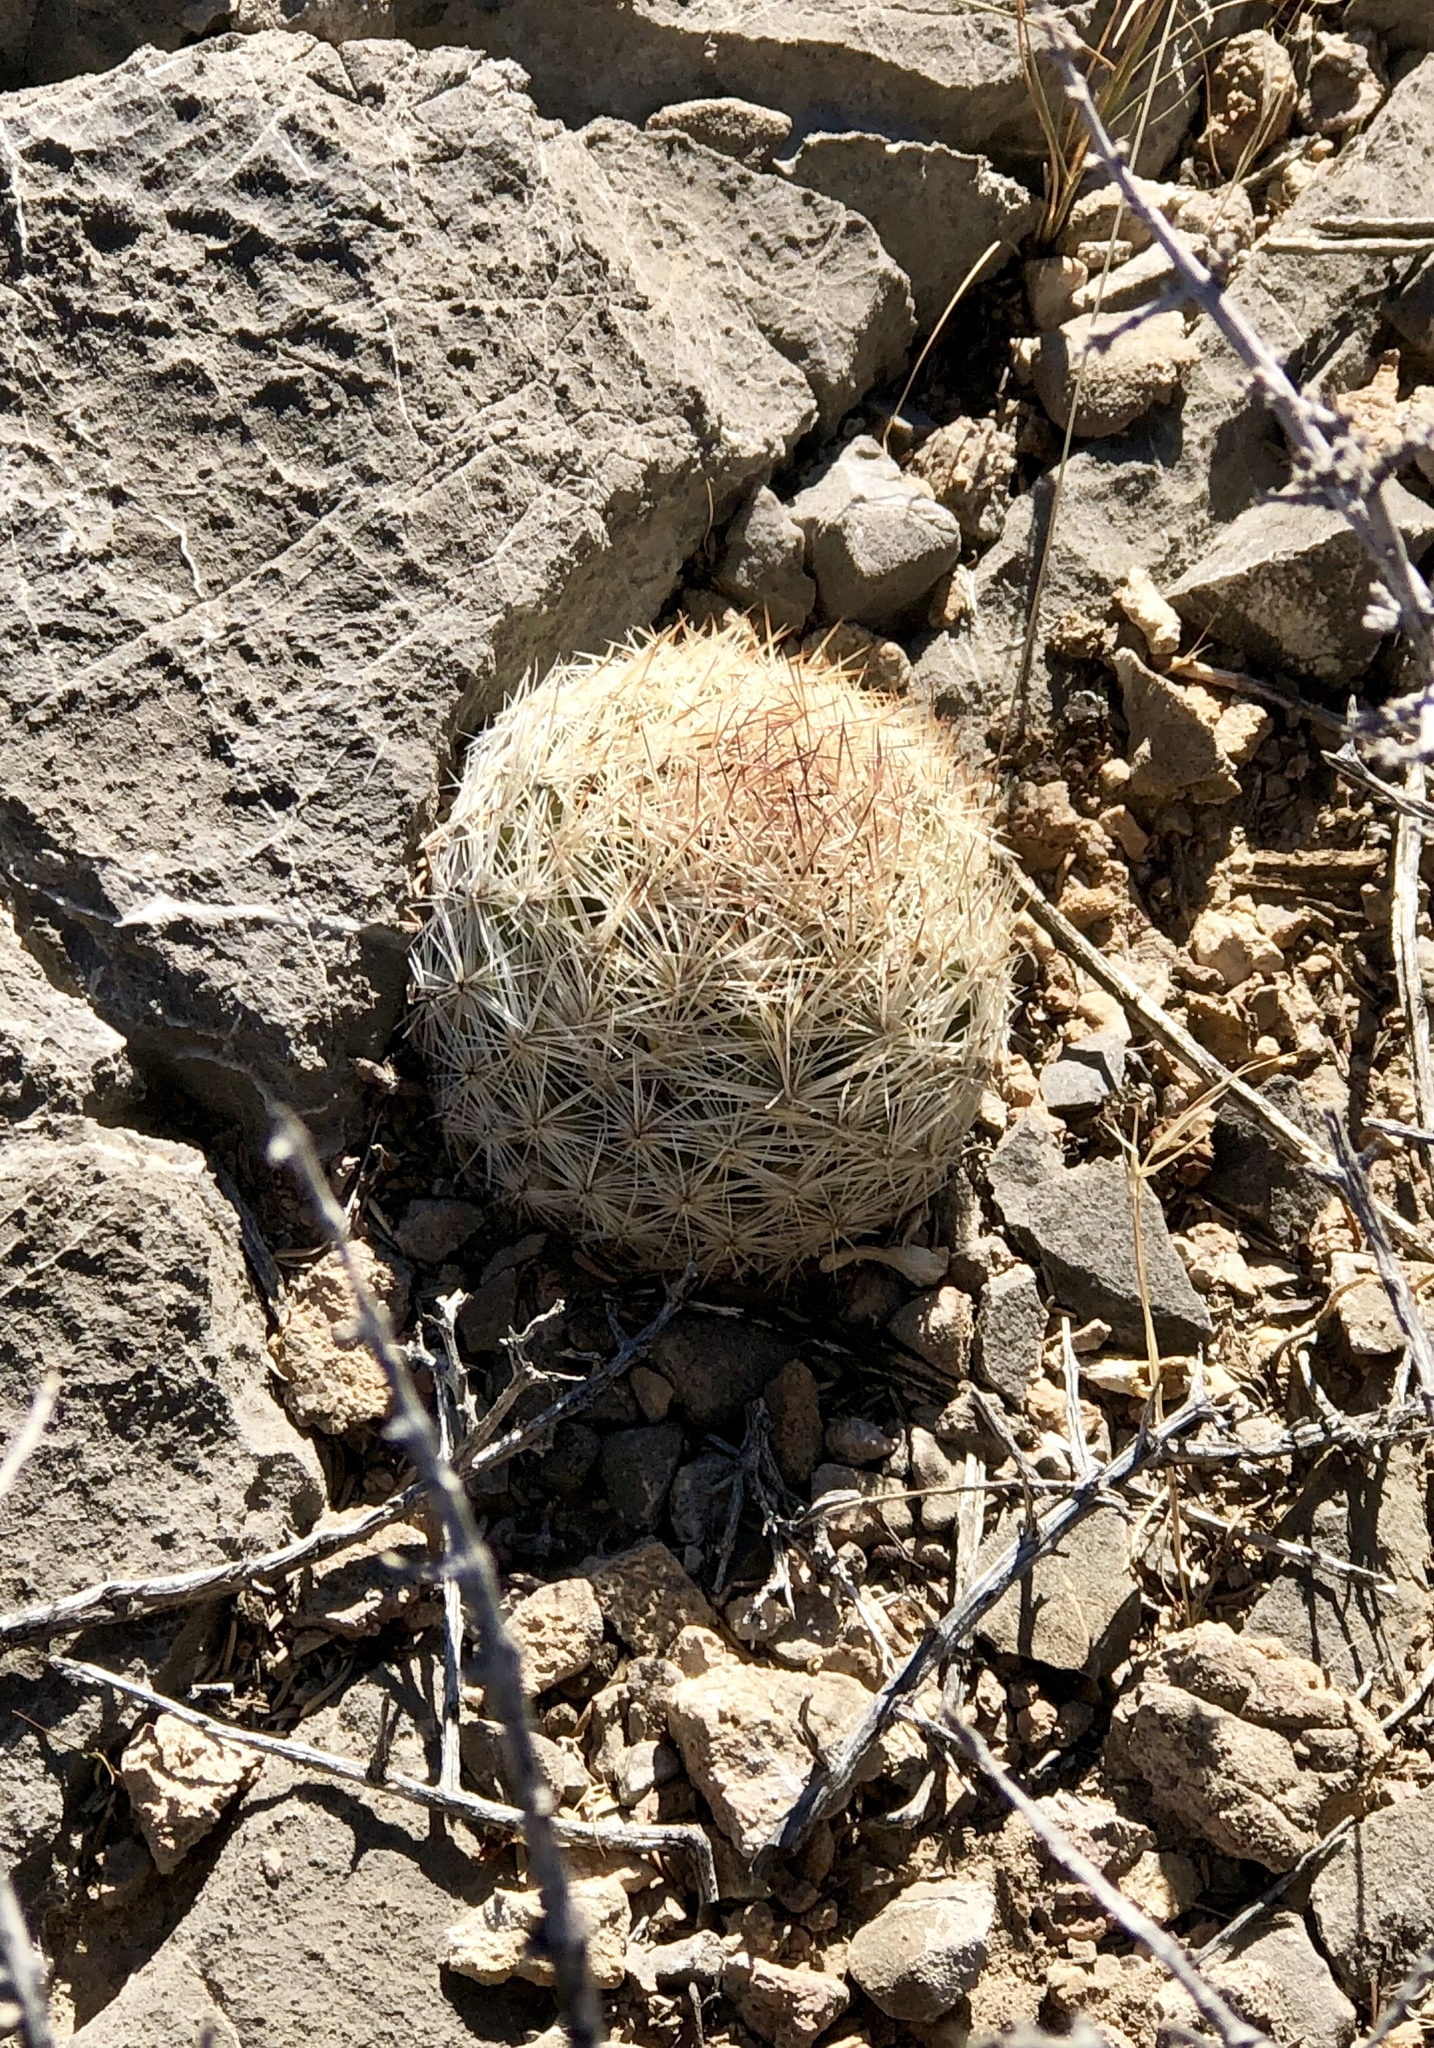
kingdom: Plantae
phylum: Tracheophyta
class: Magnoliopsida
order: Caryophyllales
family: Cactaceae
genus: Pelecyphora
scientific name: Pelecyphora dasyacantha
